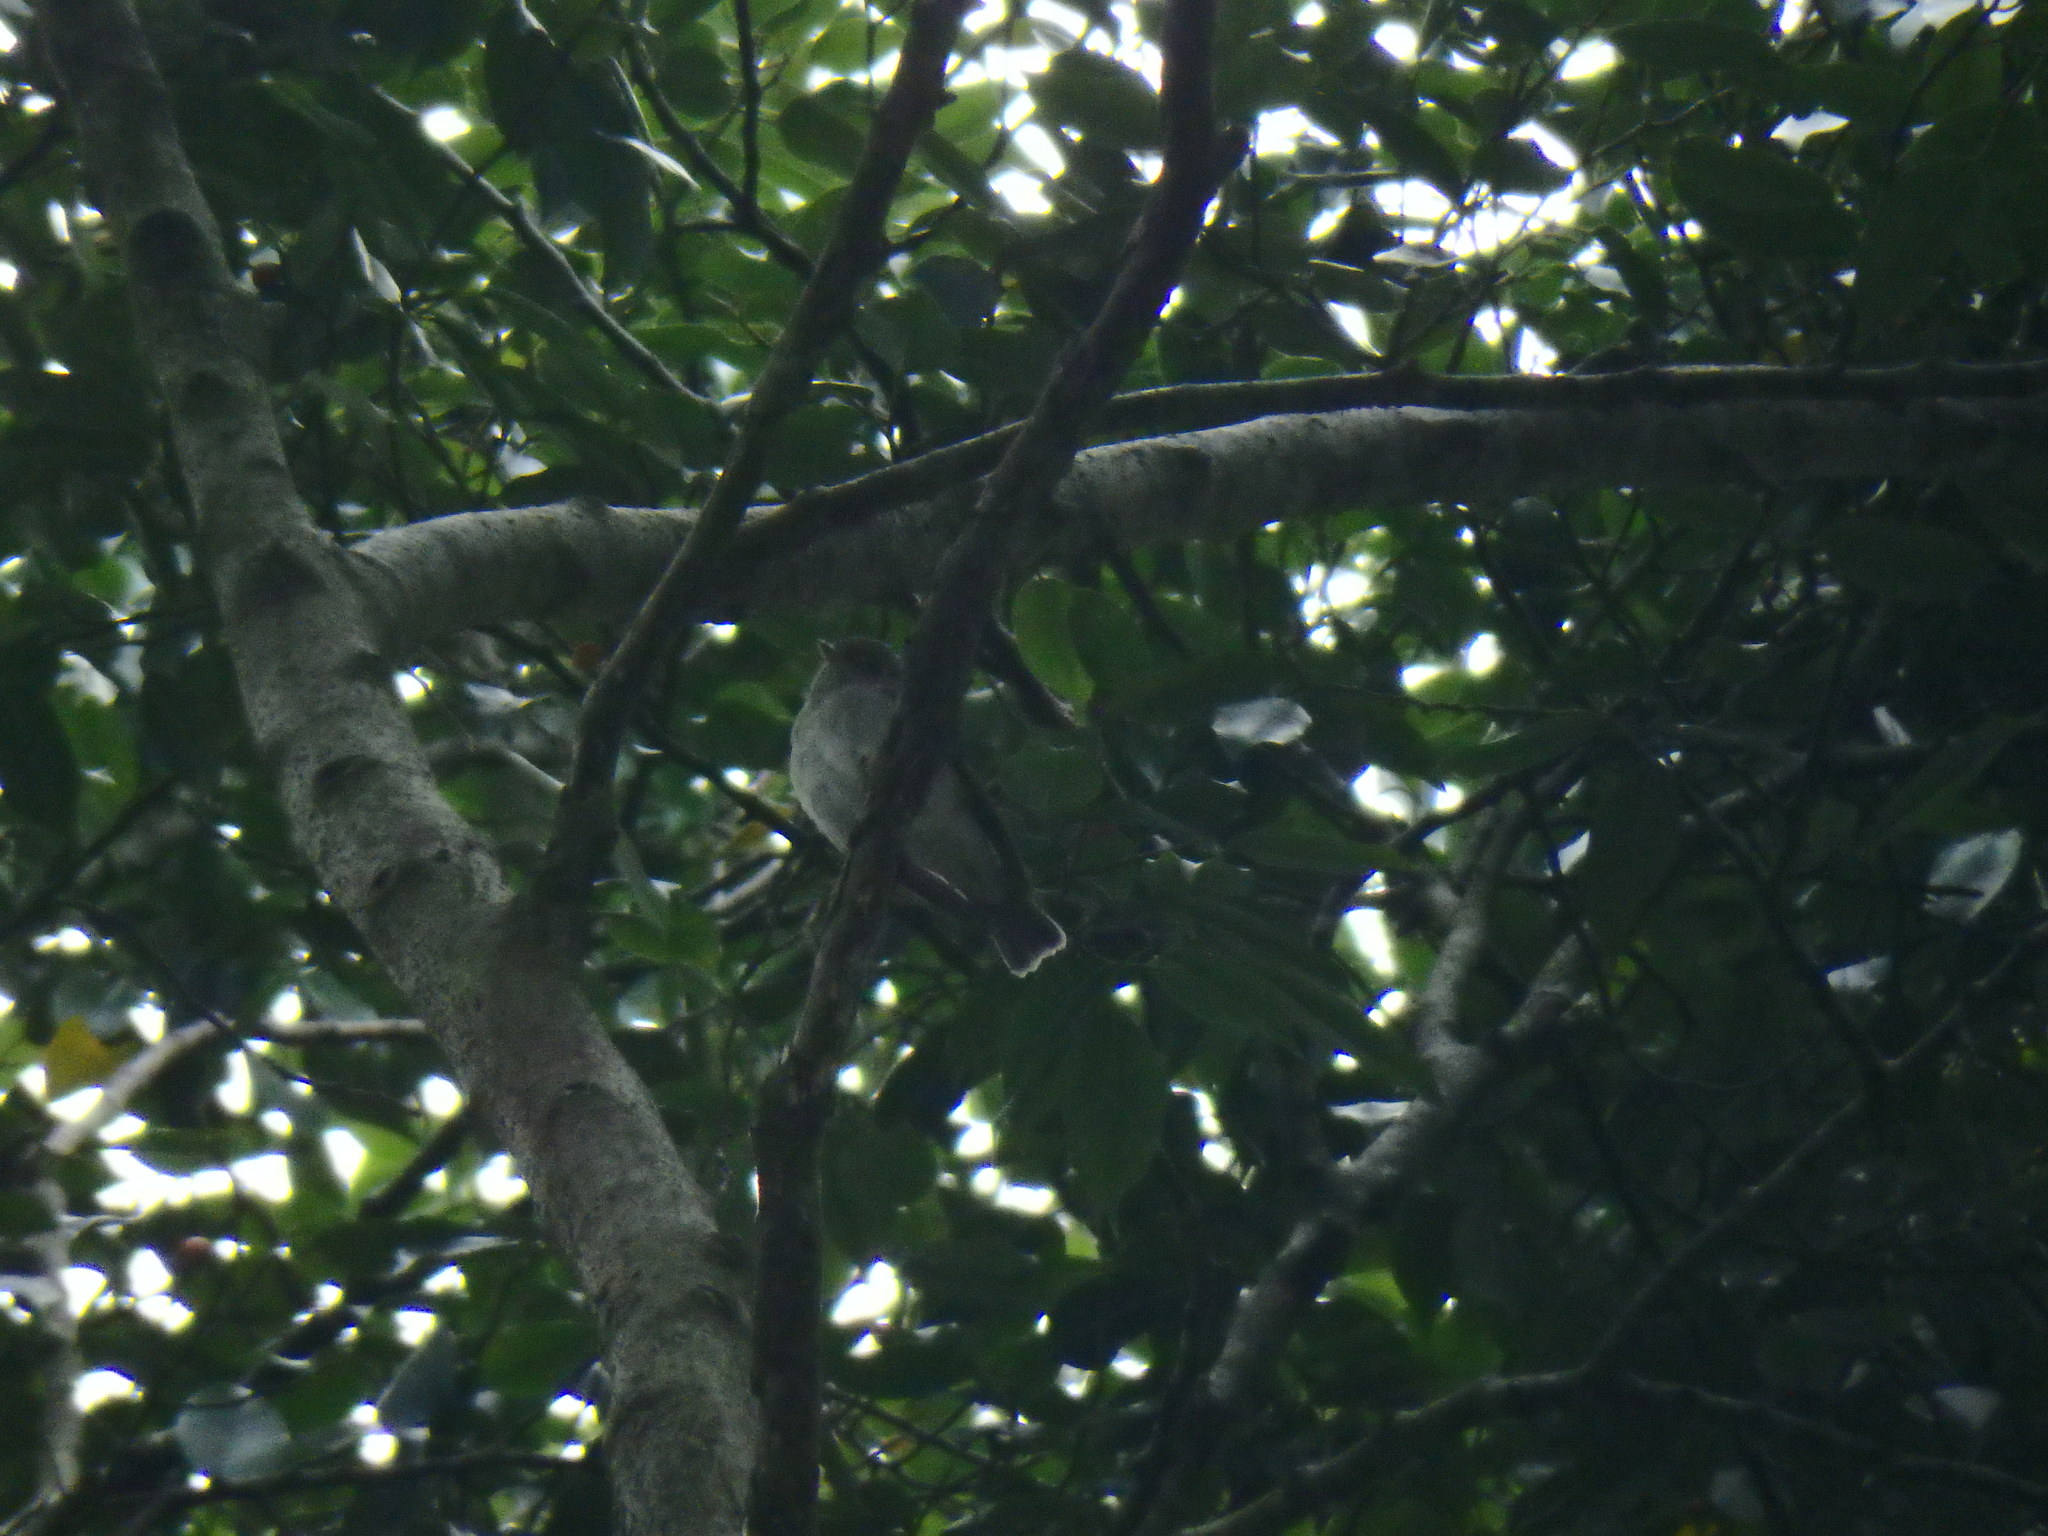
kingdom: Animalia
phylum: Chordata
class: Aves
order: Passeriformes
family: Muscicapidae
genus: Muscicapa
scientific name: Muscicapa sibirica
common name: Dark-sided flycatcher
